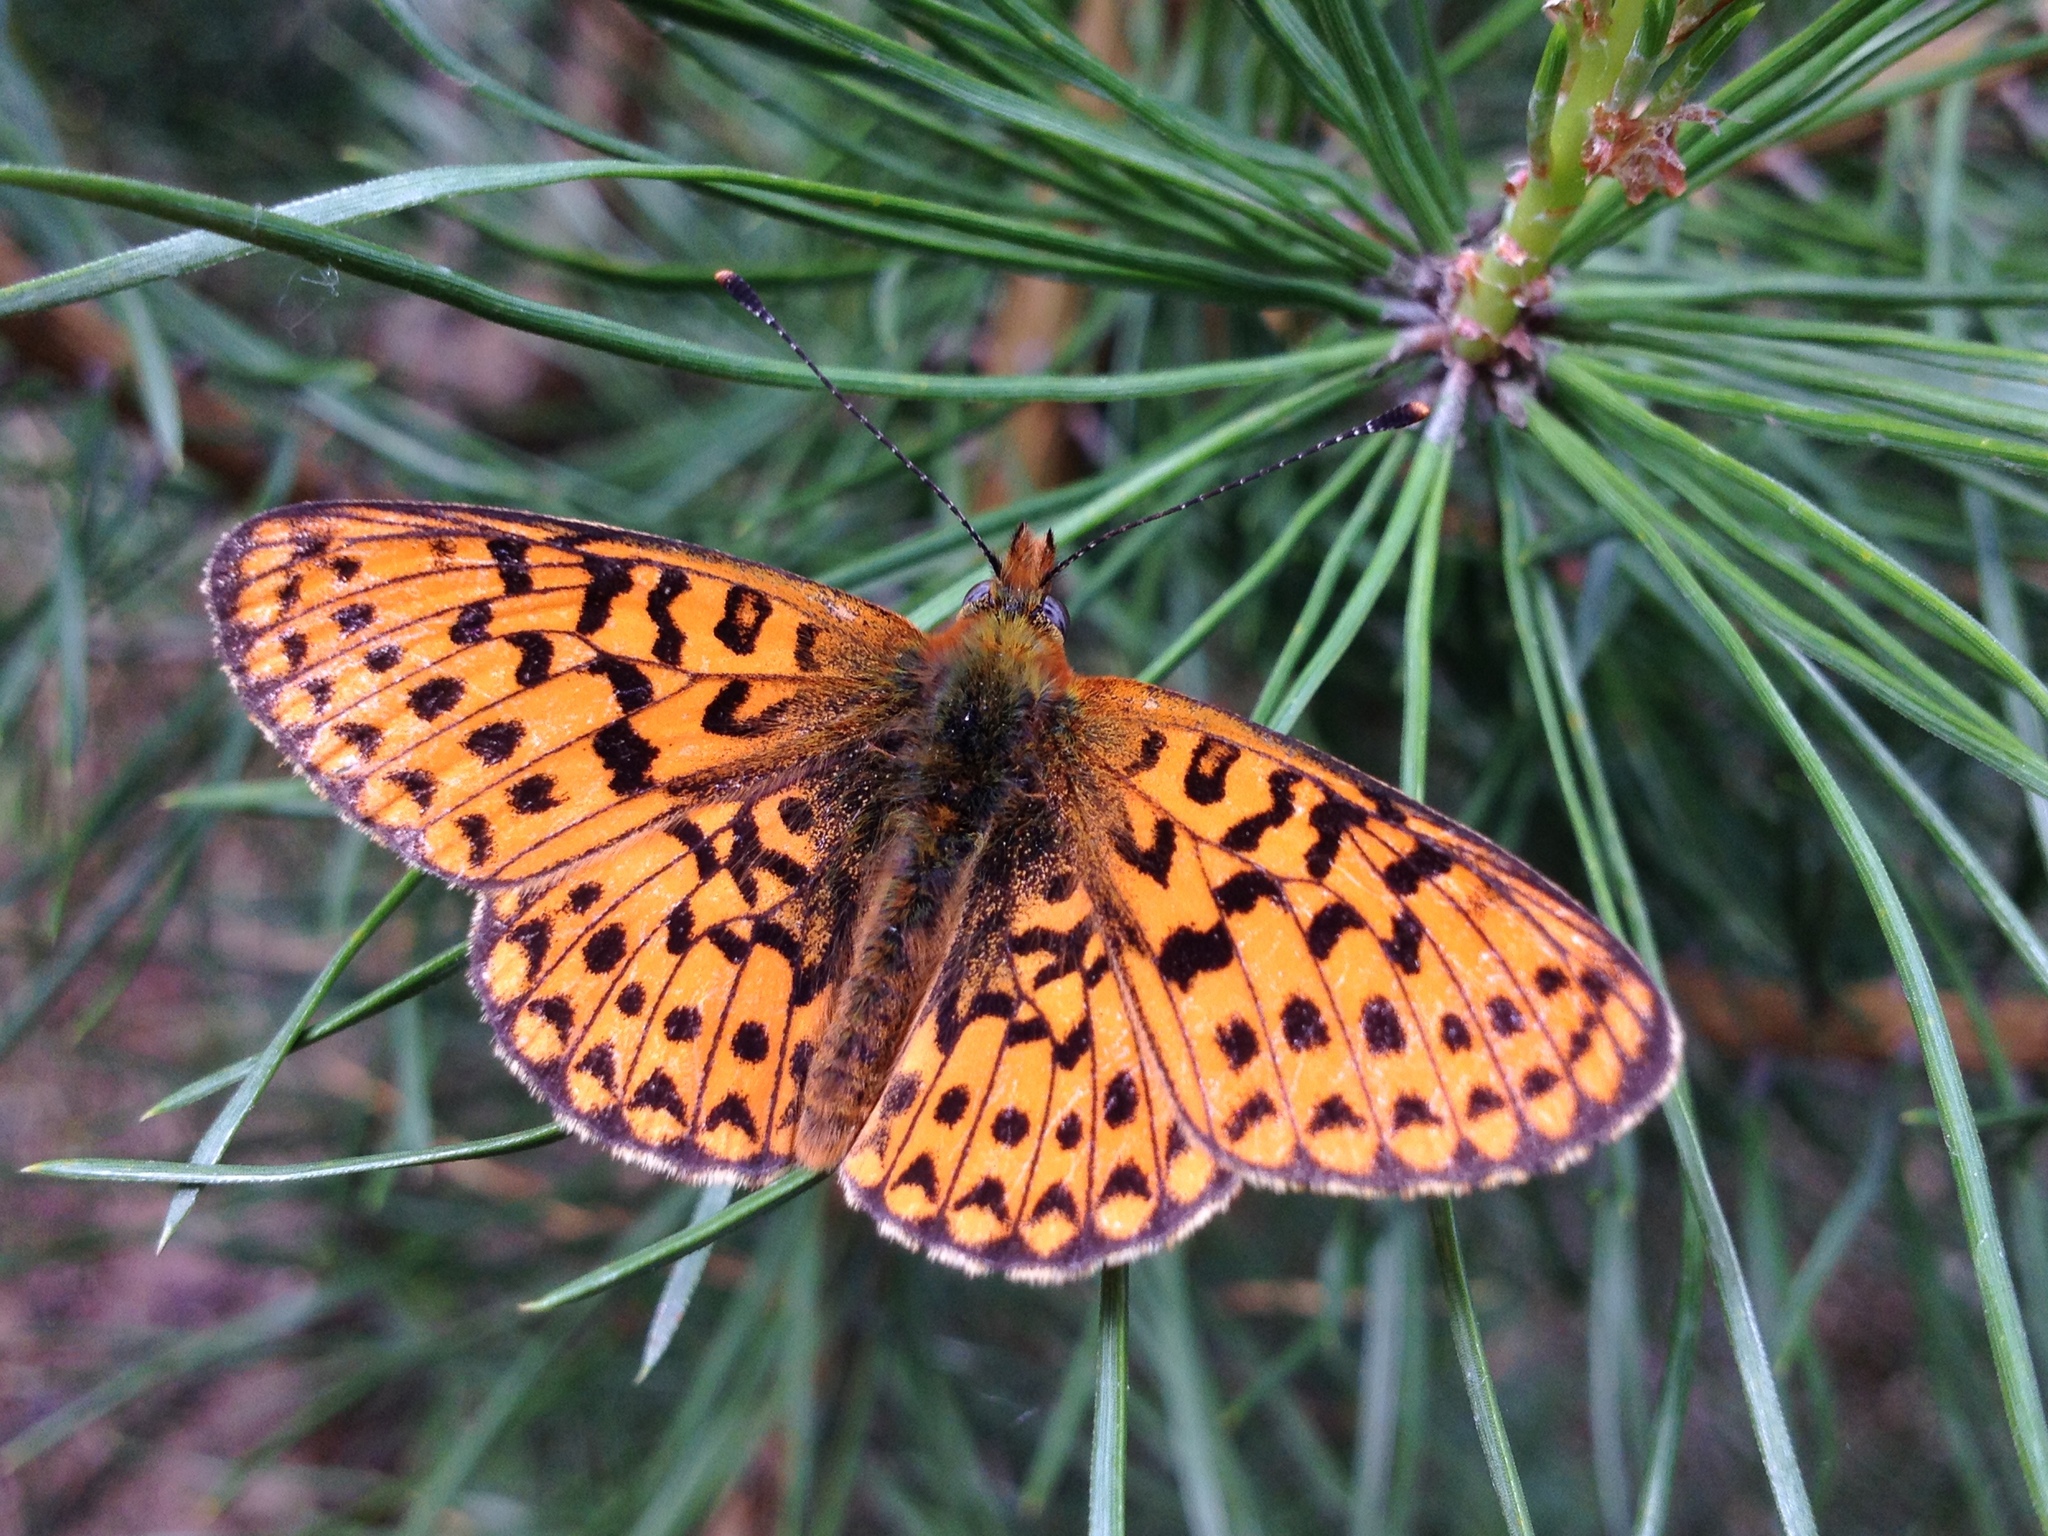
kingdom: Animalia
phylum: Arthropoda
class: Insecta
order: Lepidoptera
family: Nymphalidae
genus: Clossiana
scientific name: Clossiana euphrosyne
